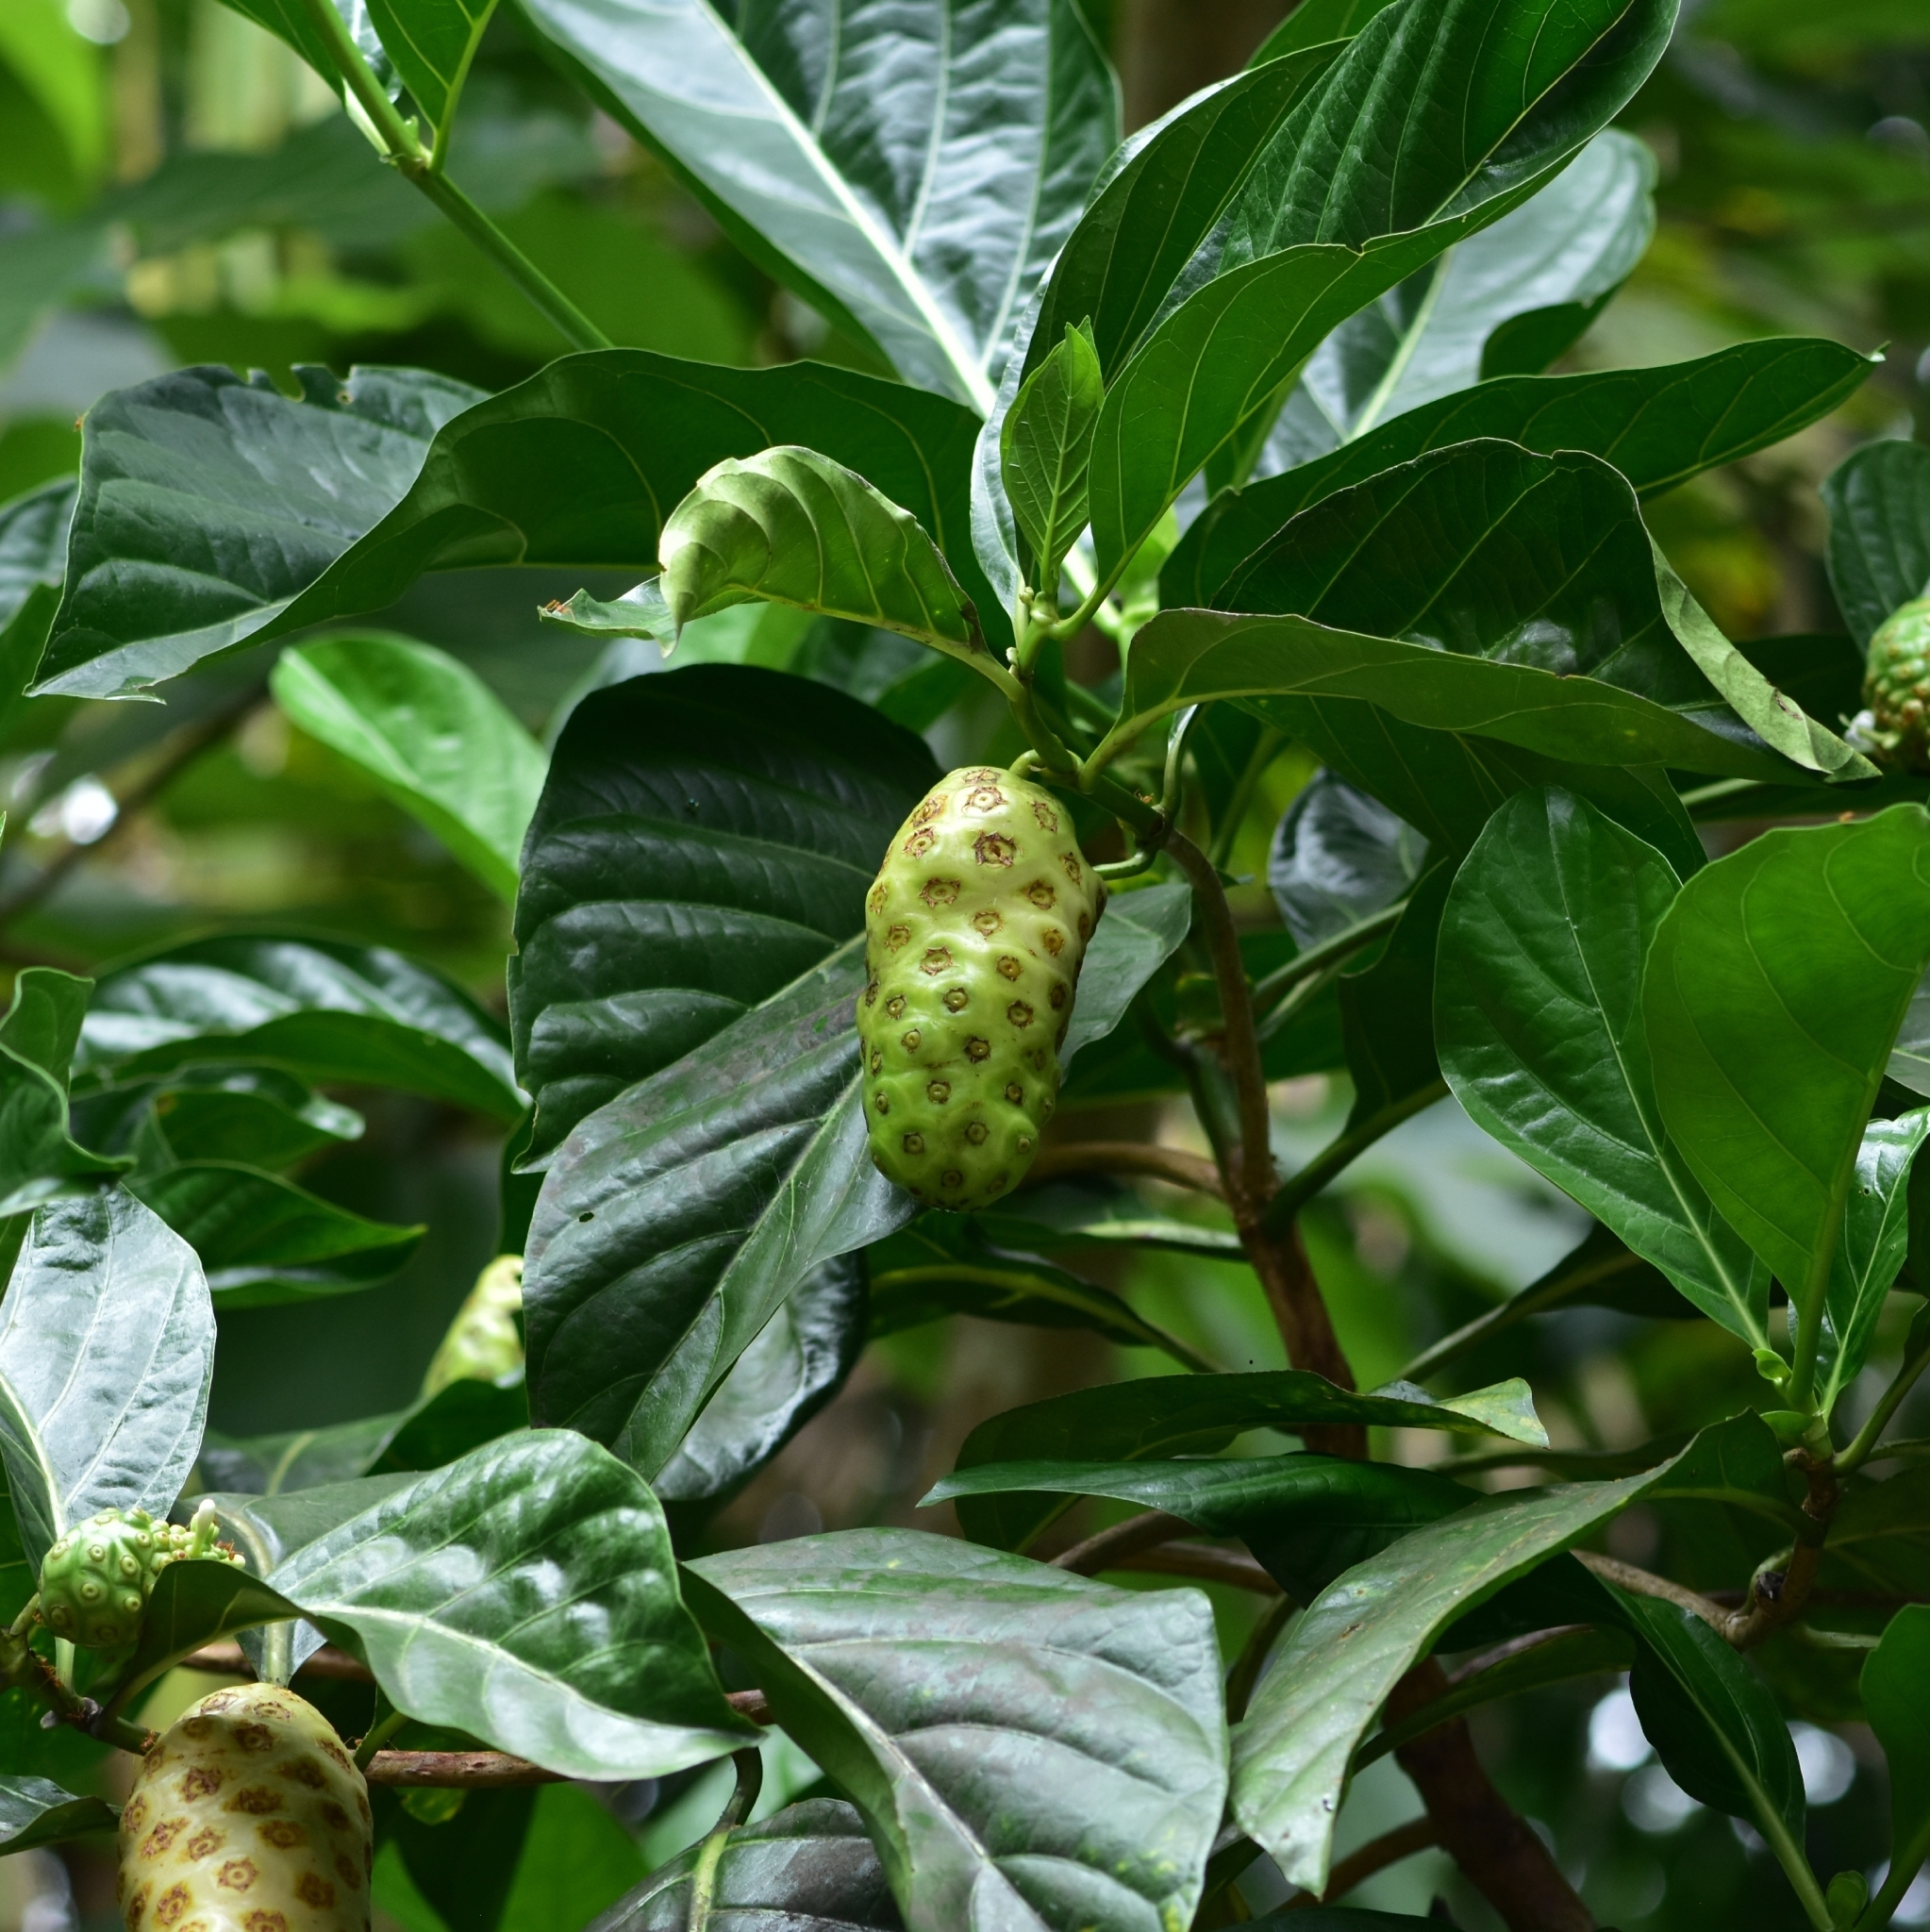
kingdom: Plantae
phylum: Tracheophyta
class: Magnoliopsida
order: Gentianales
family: Rubiaceae
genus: Morinda
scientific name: Morinda citrifolia
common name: Indian-mulberry
